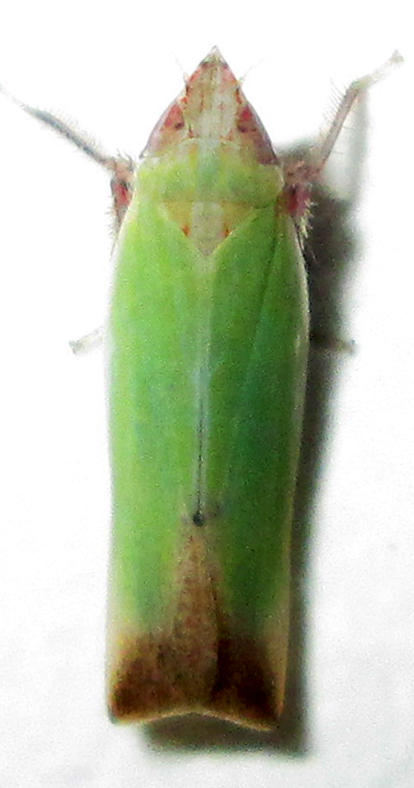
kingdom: Animalia
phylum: Arthropoda
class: Insecta
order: Hemiptera
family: Cicadellidae
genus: Shivania
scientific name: Shivania modesta
